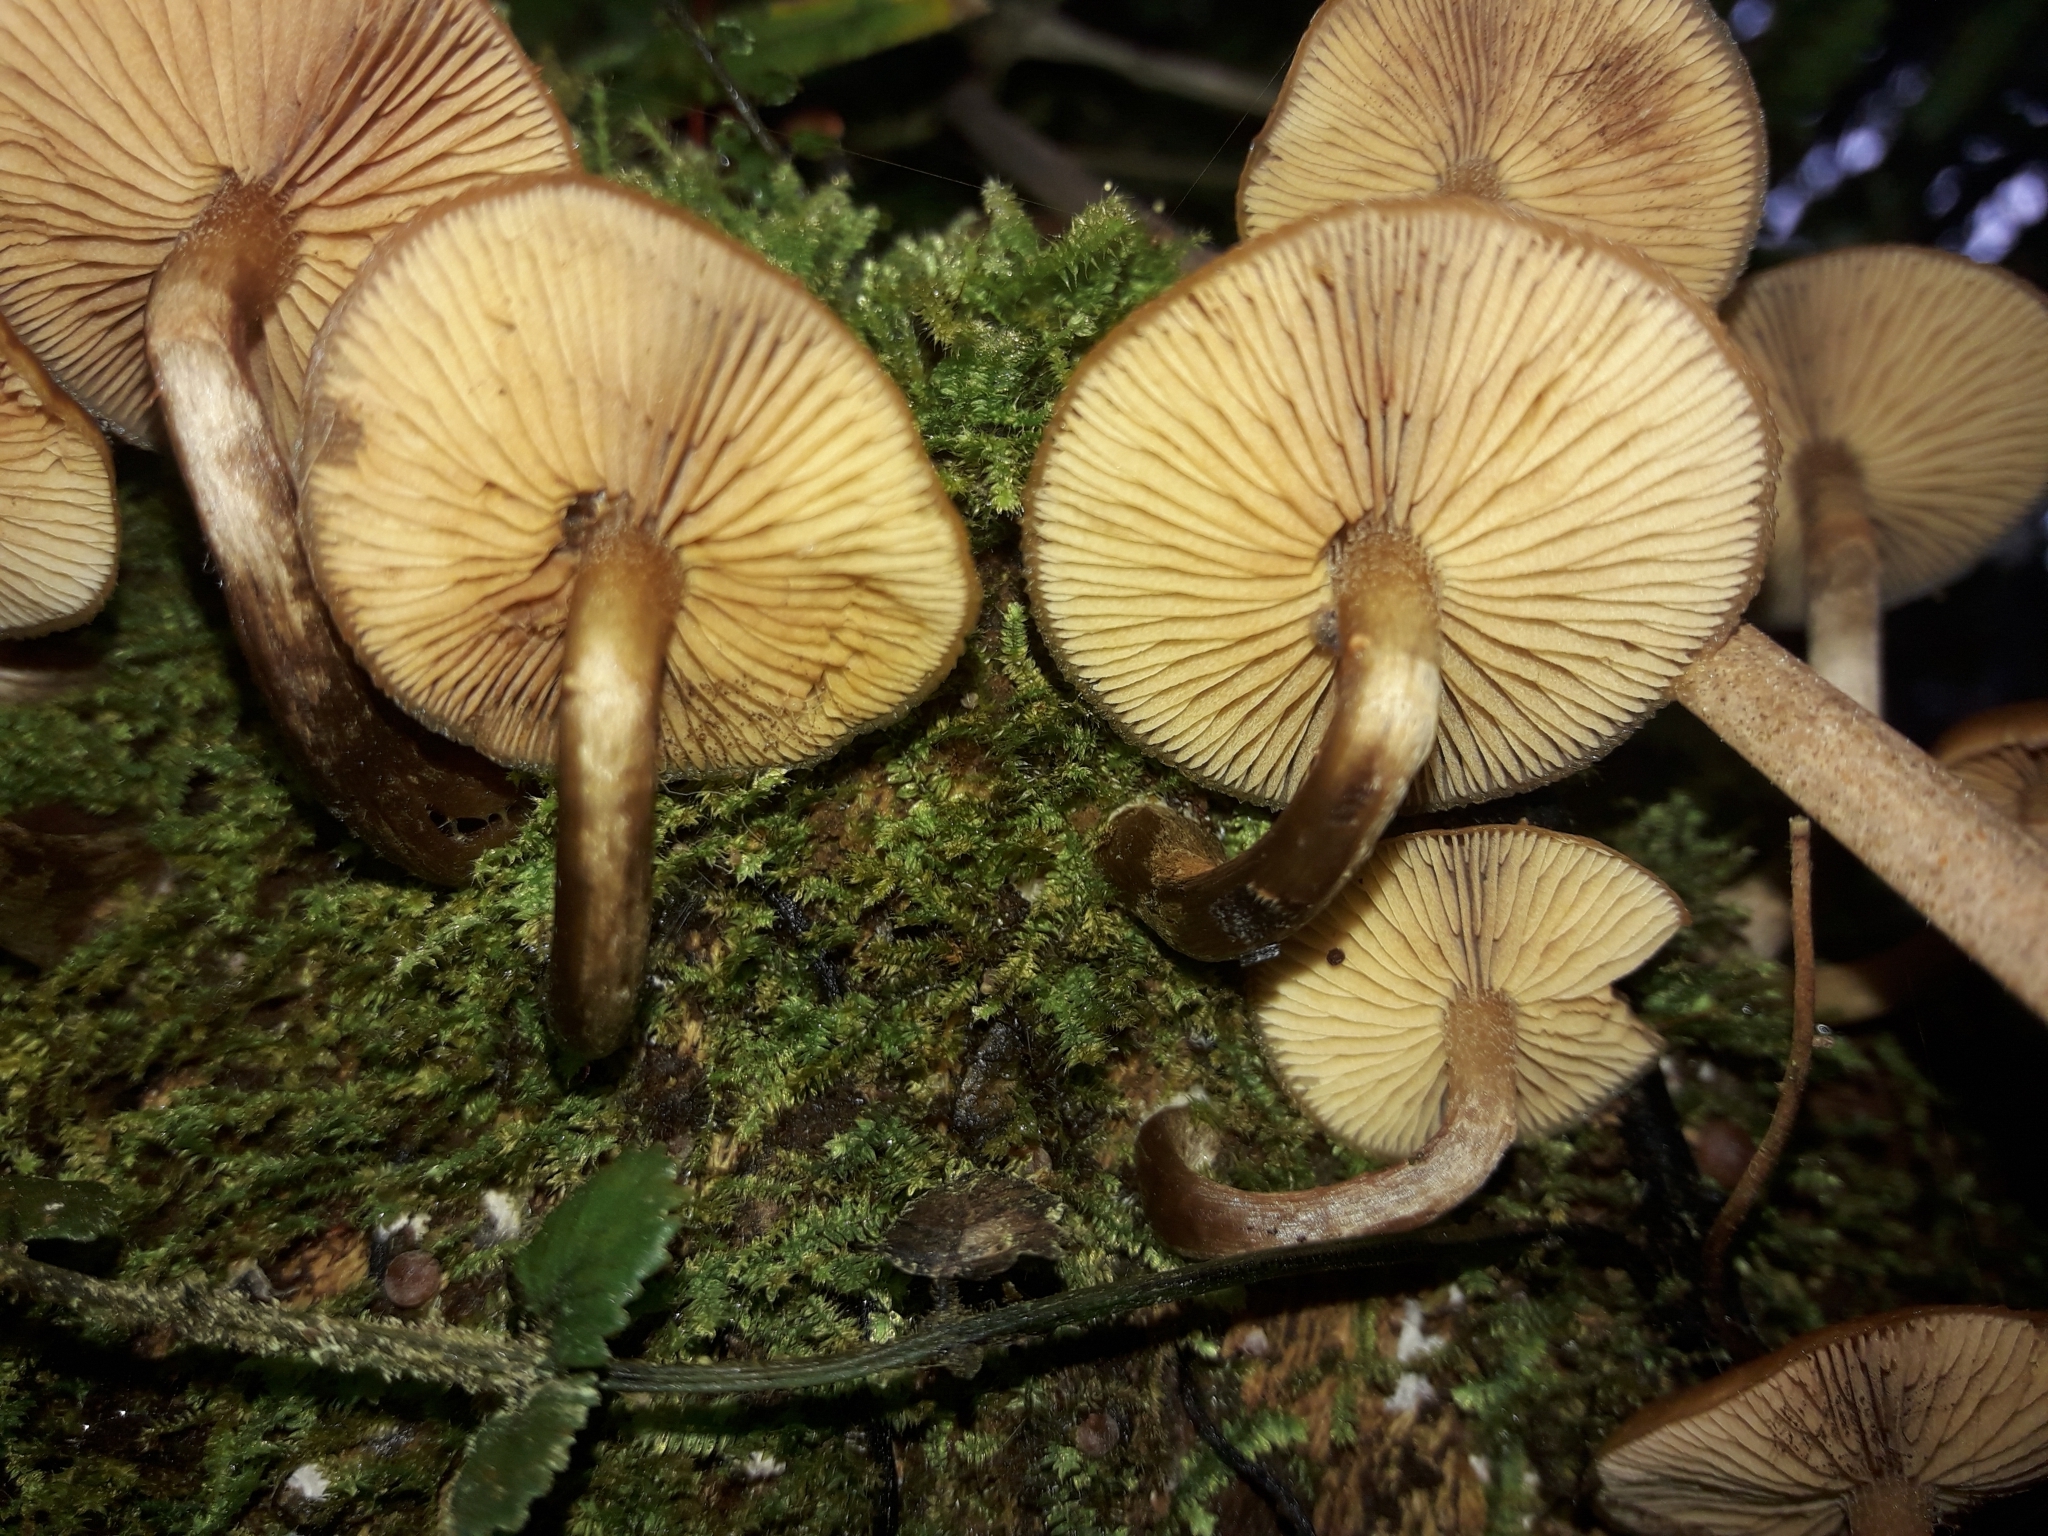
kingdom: Fungi
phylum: Basidiomycota
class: Agaricomycetes
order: Agaricales
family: Hymenogastraceae
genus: Galerina
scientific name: Galerina patagonica
